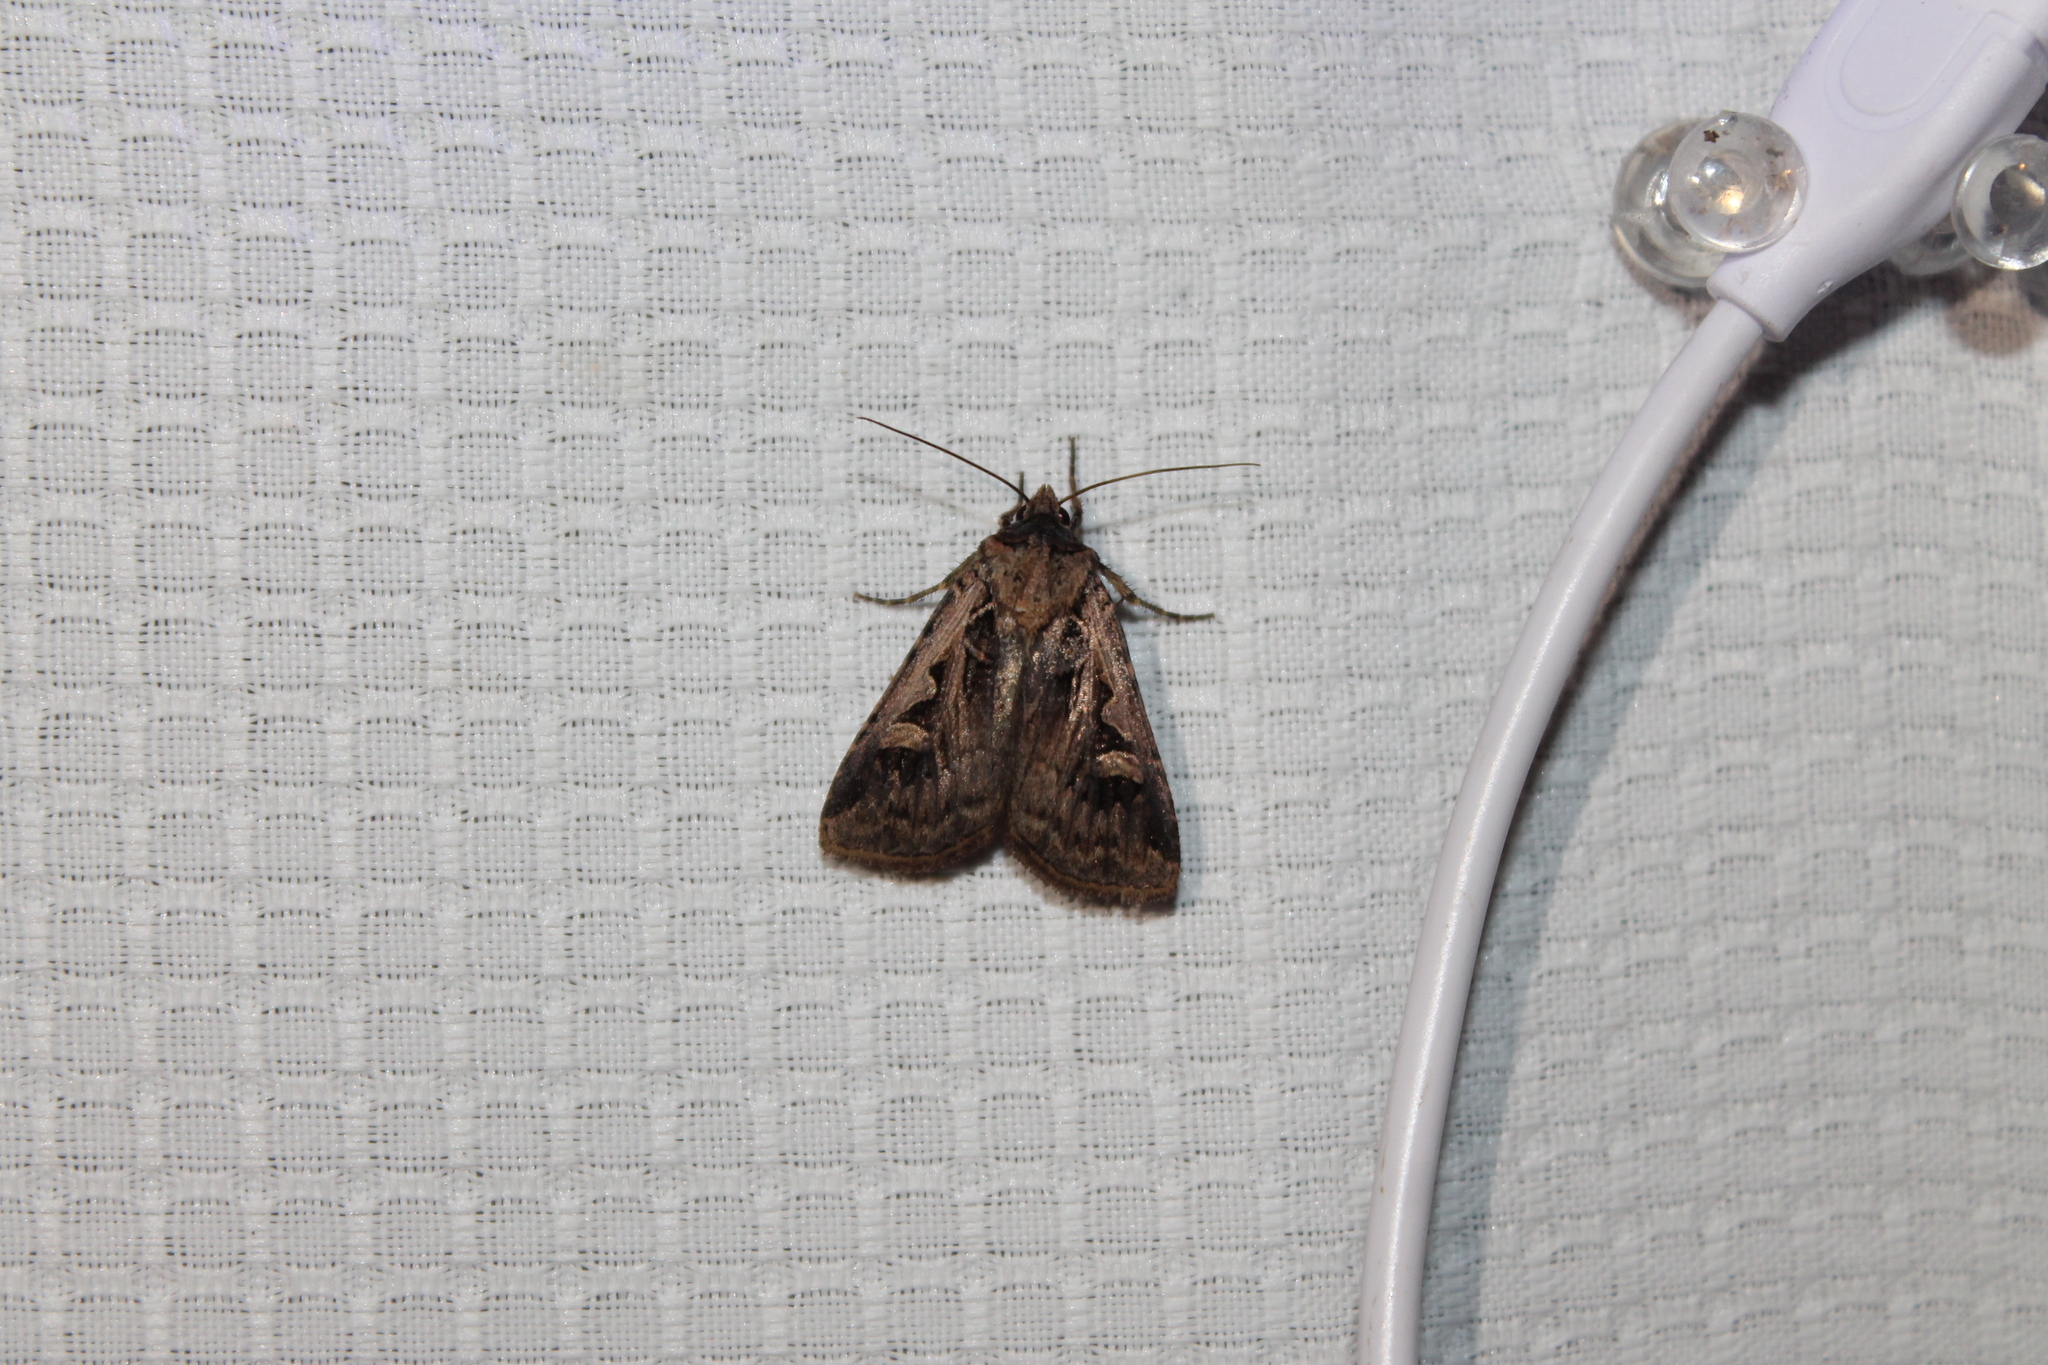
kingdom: Animalia
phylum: Arthropoda
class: Insecta
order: Lepidoptera
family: Noctuidae
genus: Feltia
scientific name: Feltia herilis
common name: Master's dart
